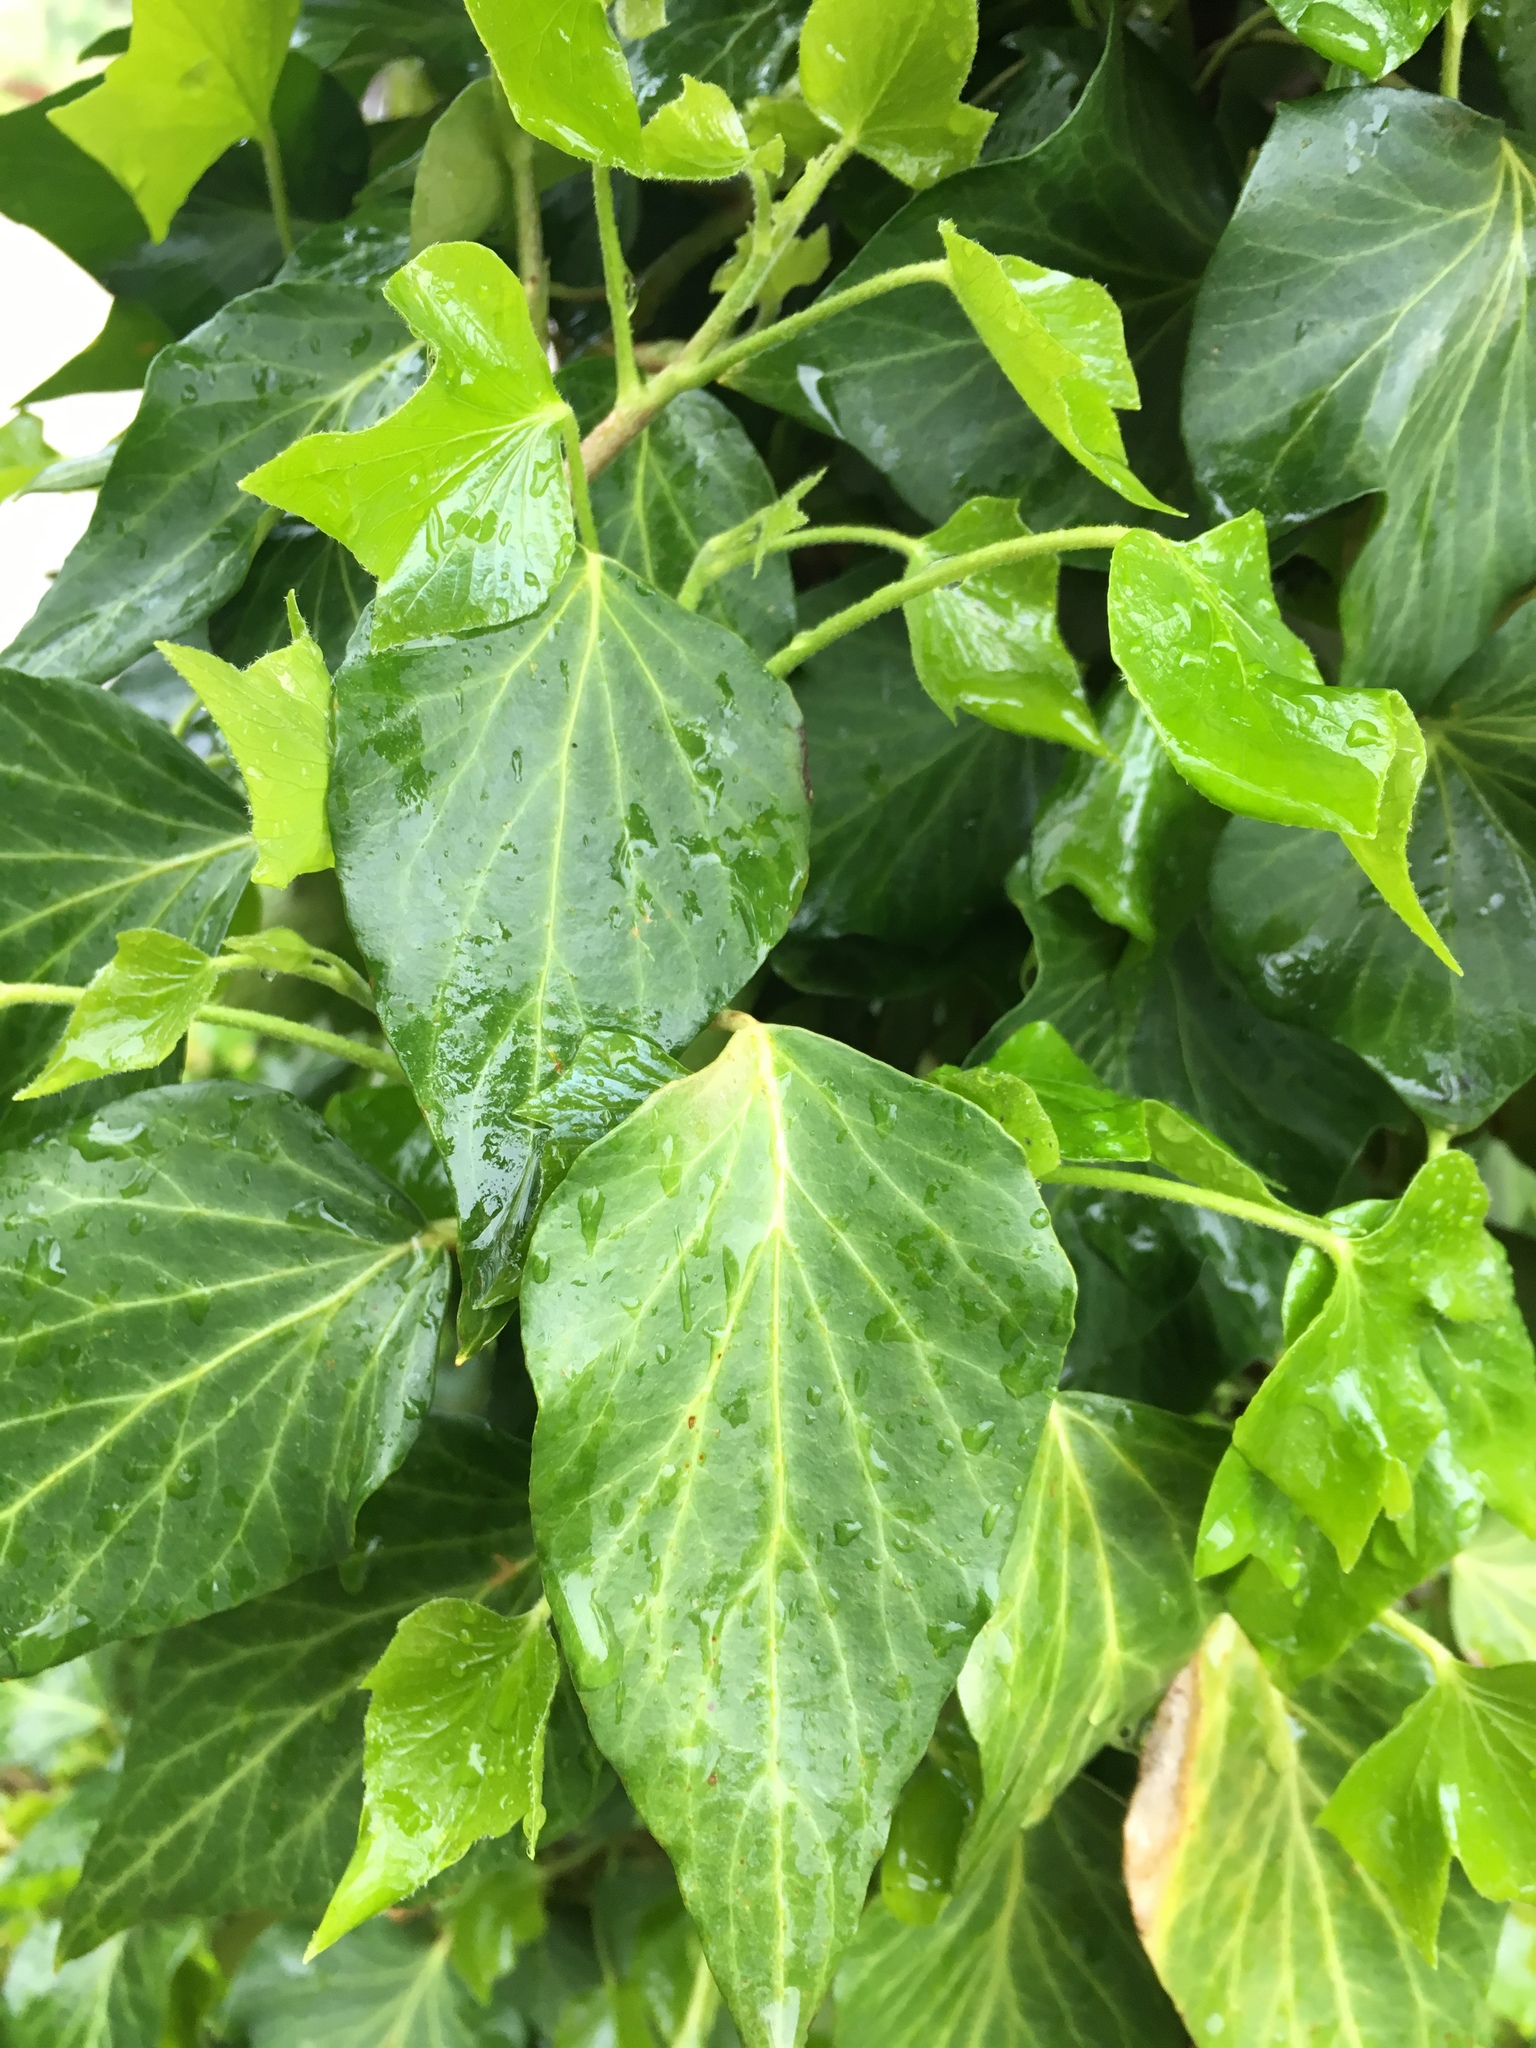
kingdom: Plantae
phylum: Tracheophyta
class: Magnoliopsida
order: Apiales
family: Araliaceae
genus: Hedera
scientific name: Hedera helix
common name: Ivy
